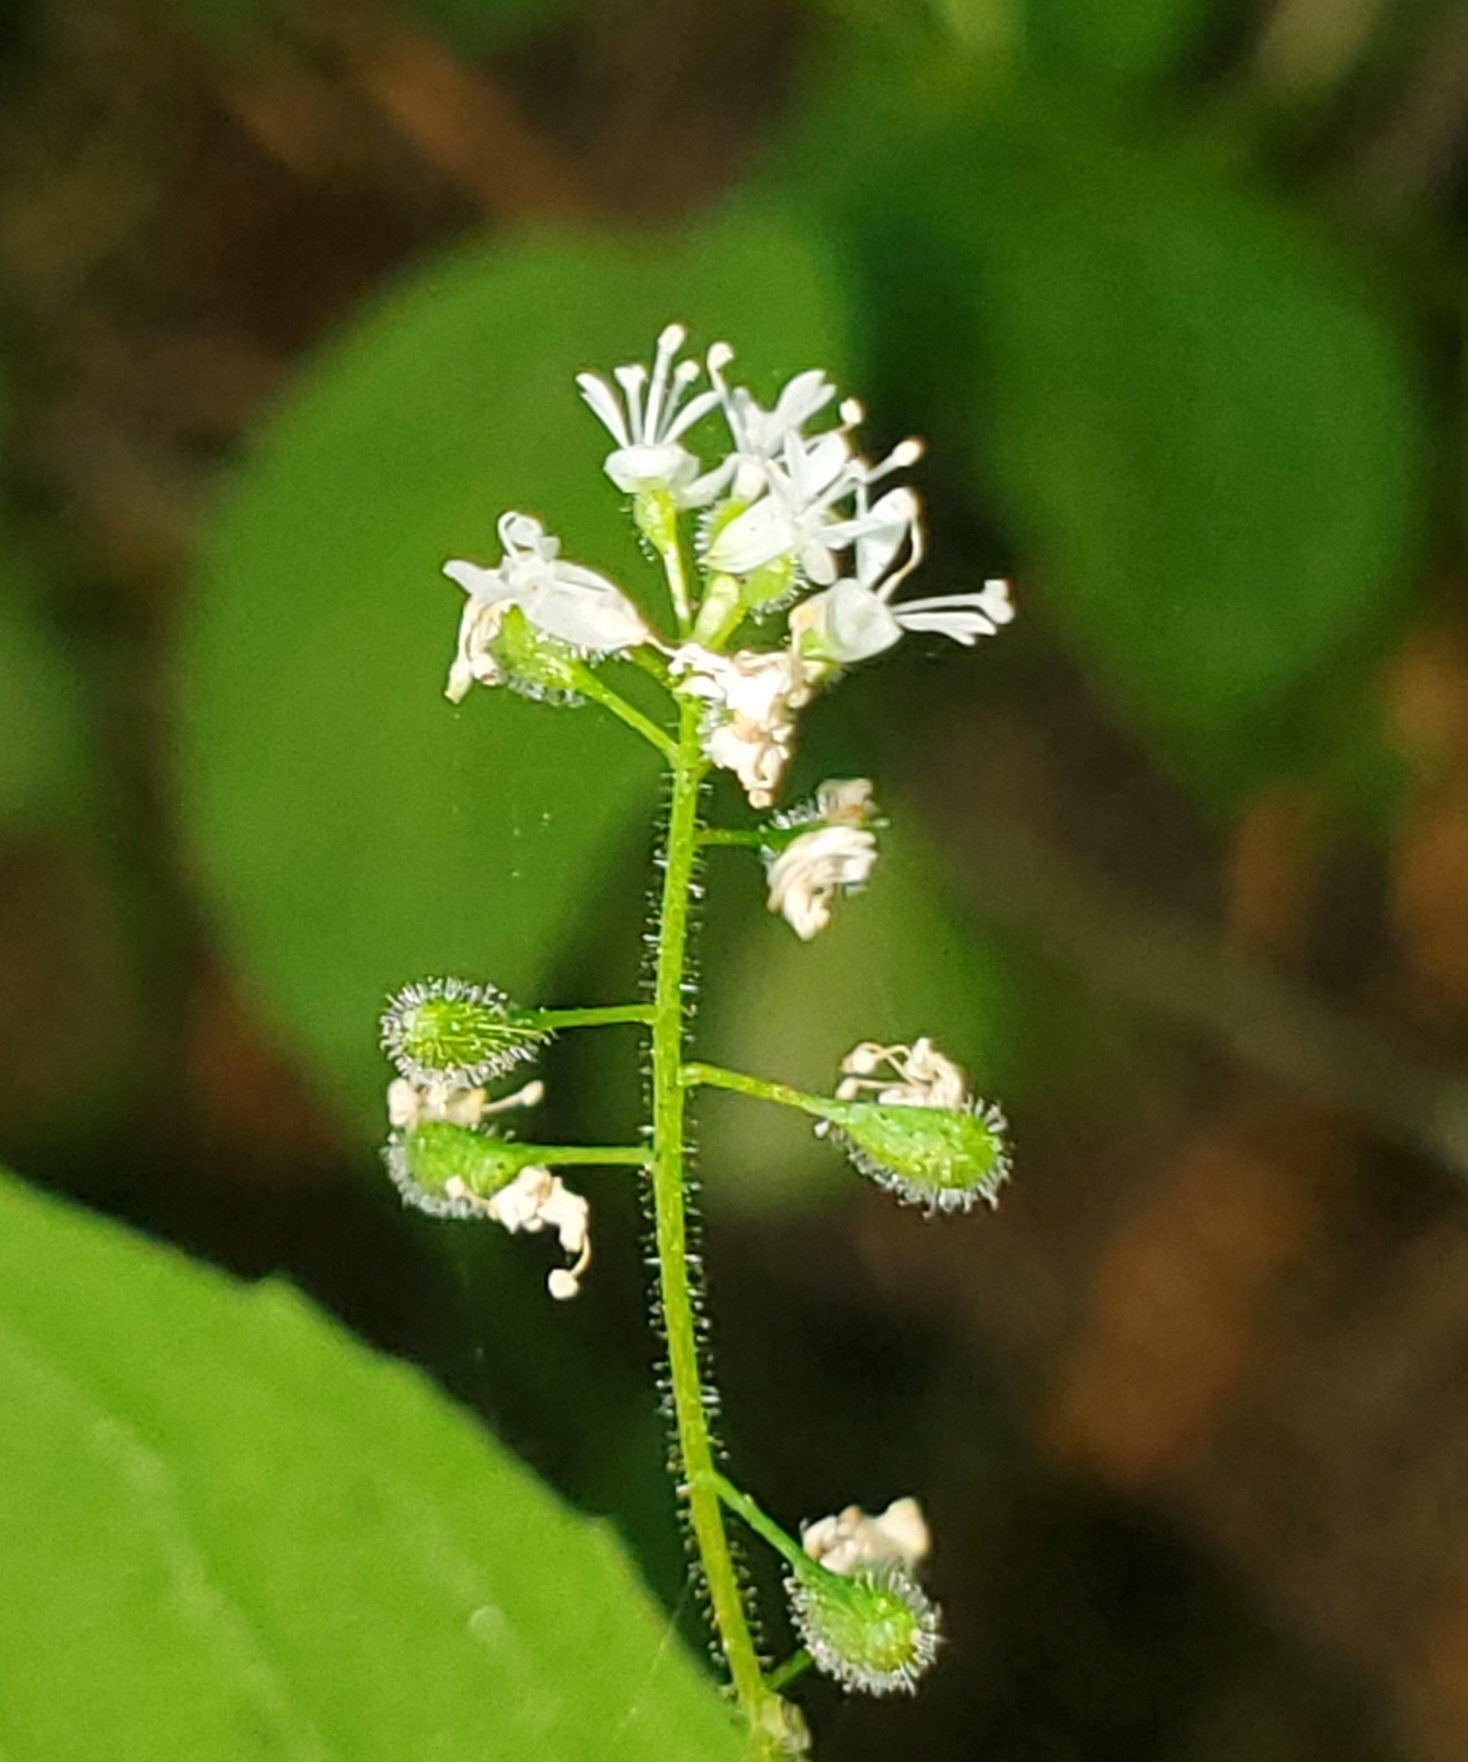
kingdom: Plantae
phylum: Tracheophyta
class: Magnoliopsida
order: Myrtales
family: Onagraceae
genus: Circaea
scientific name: Circaea alpina
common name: Alpine enchanter's-nightshade
